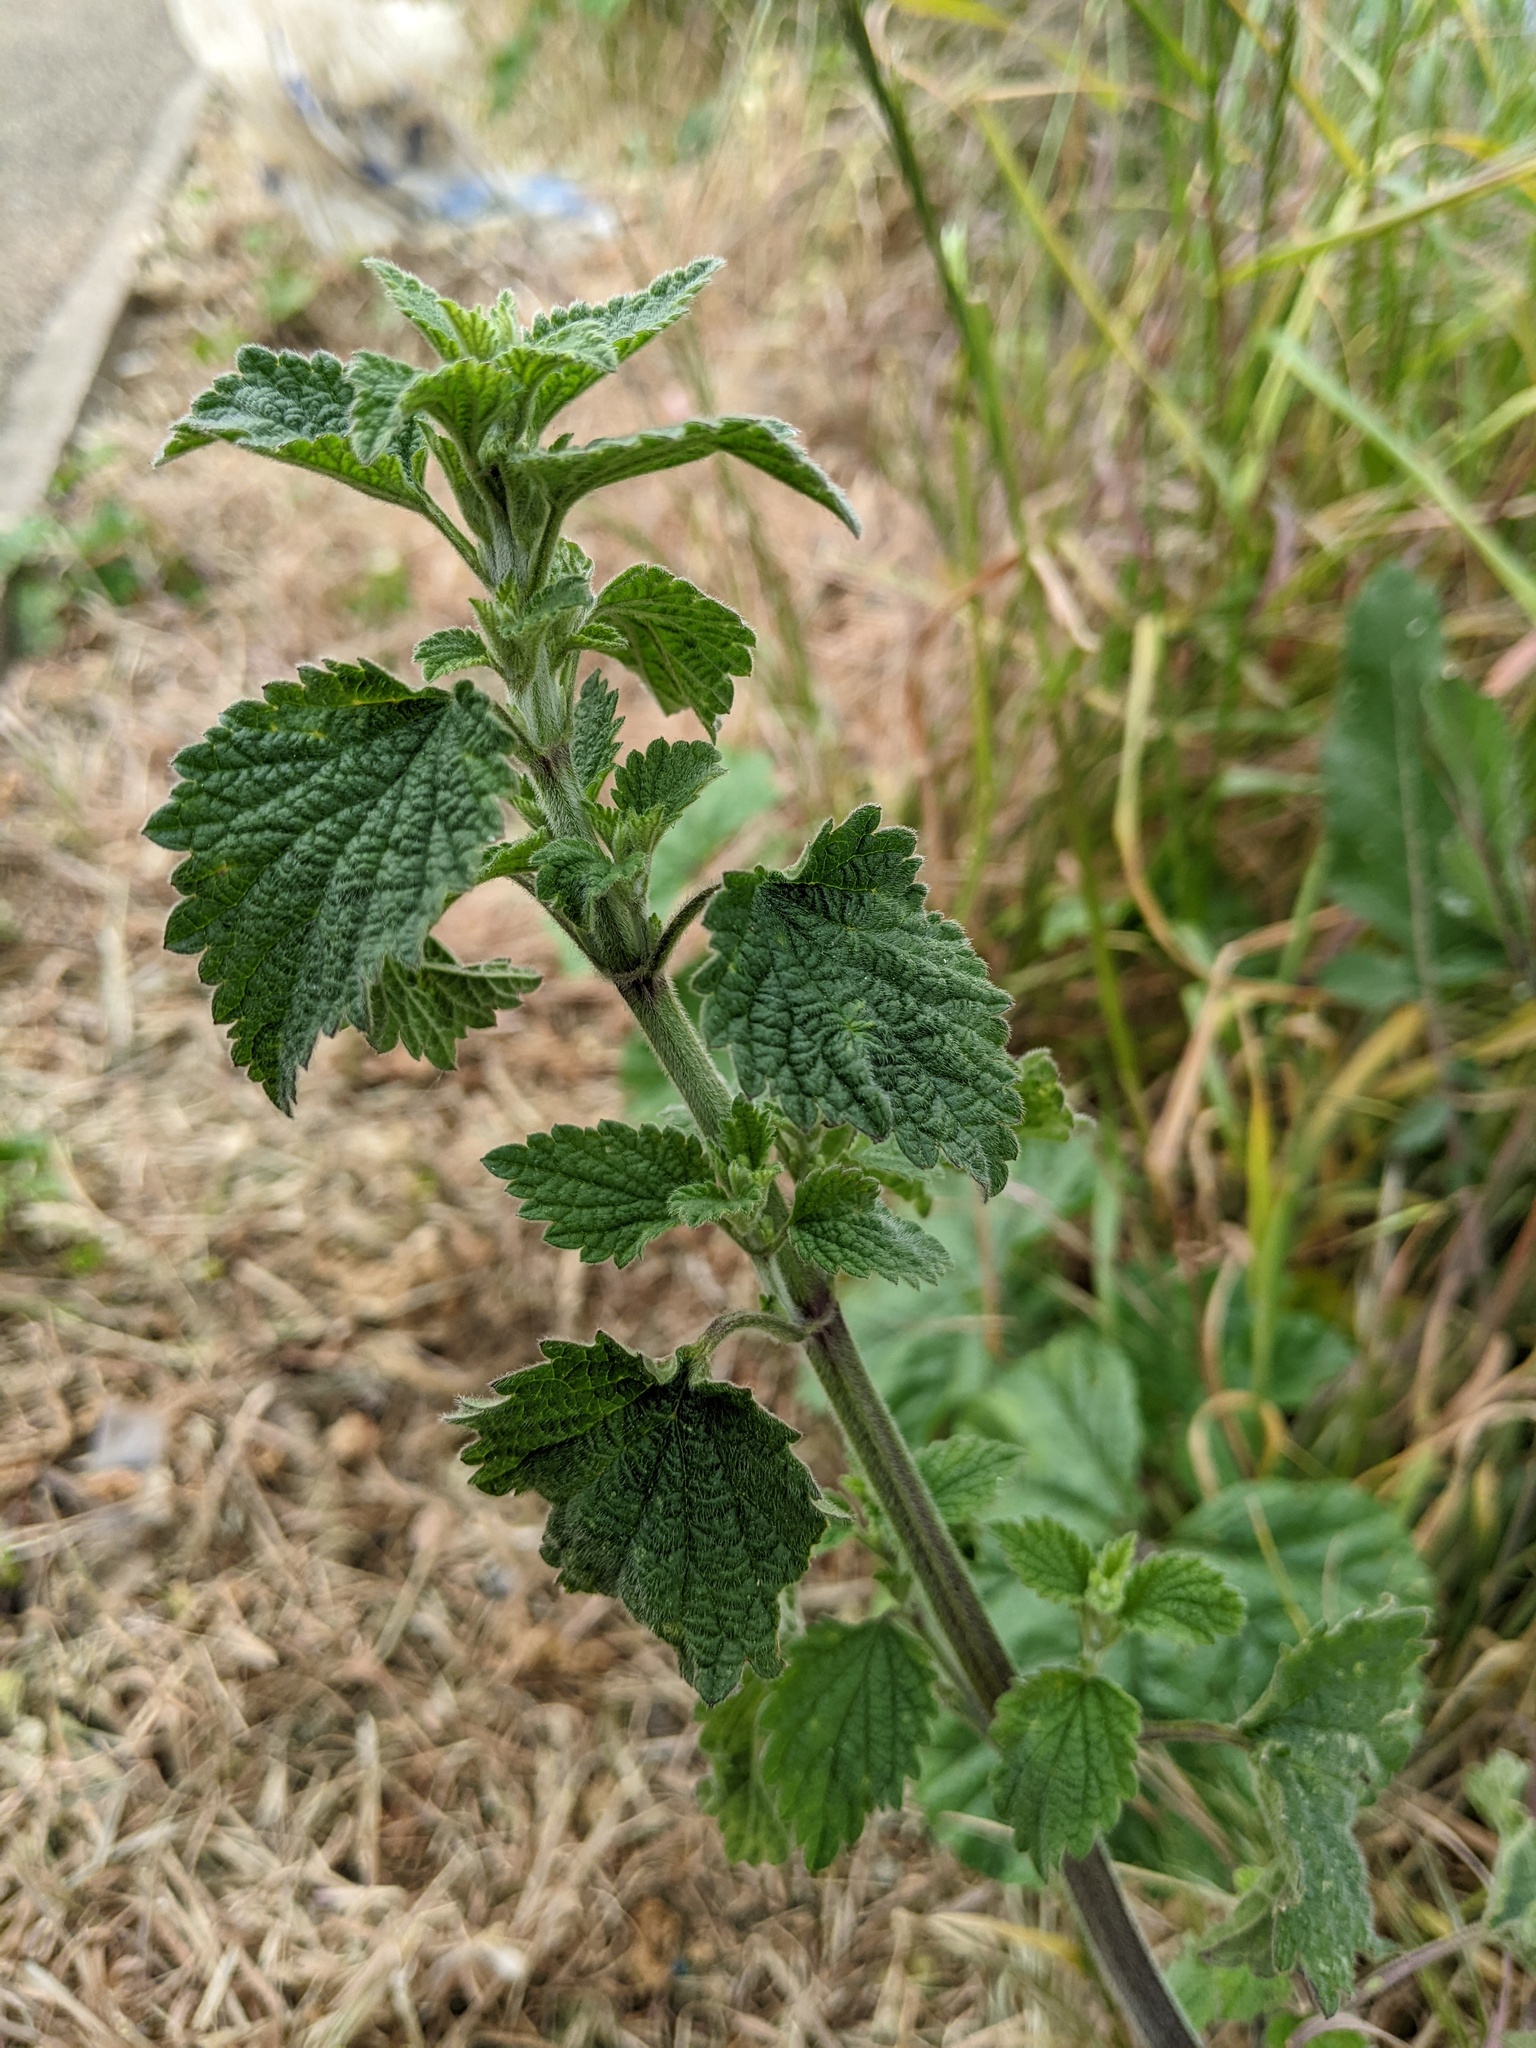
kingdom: Plantae
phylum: Tracheophyta
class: Magnoliopsida
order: Lamiales
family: Lamiaceae
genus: Ballota
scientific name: Ballota nigra
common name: Black horehound
